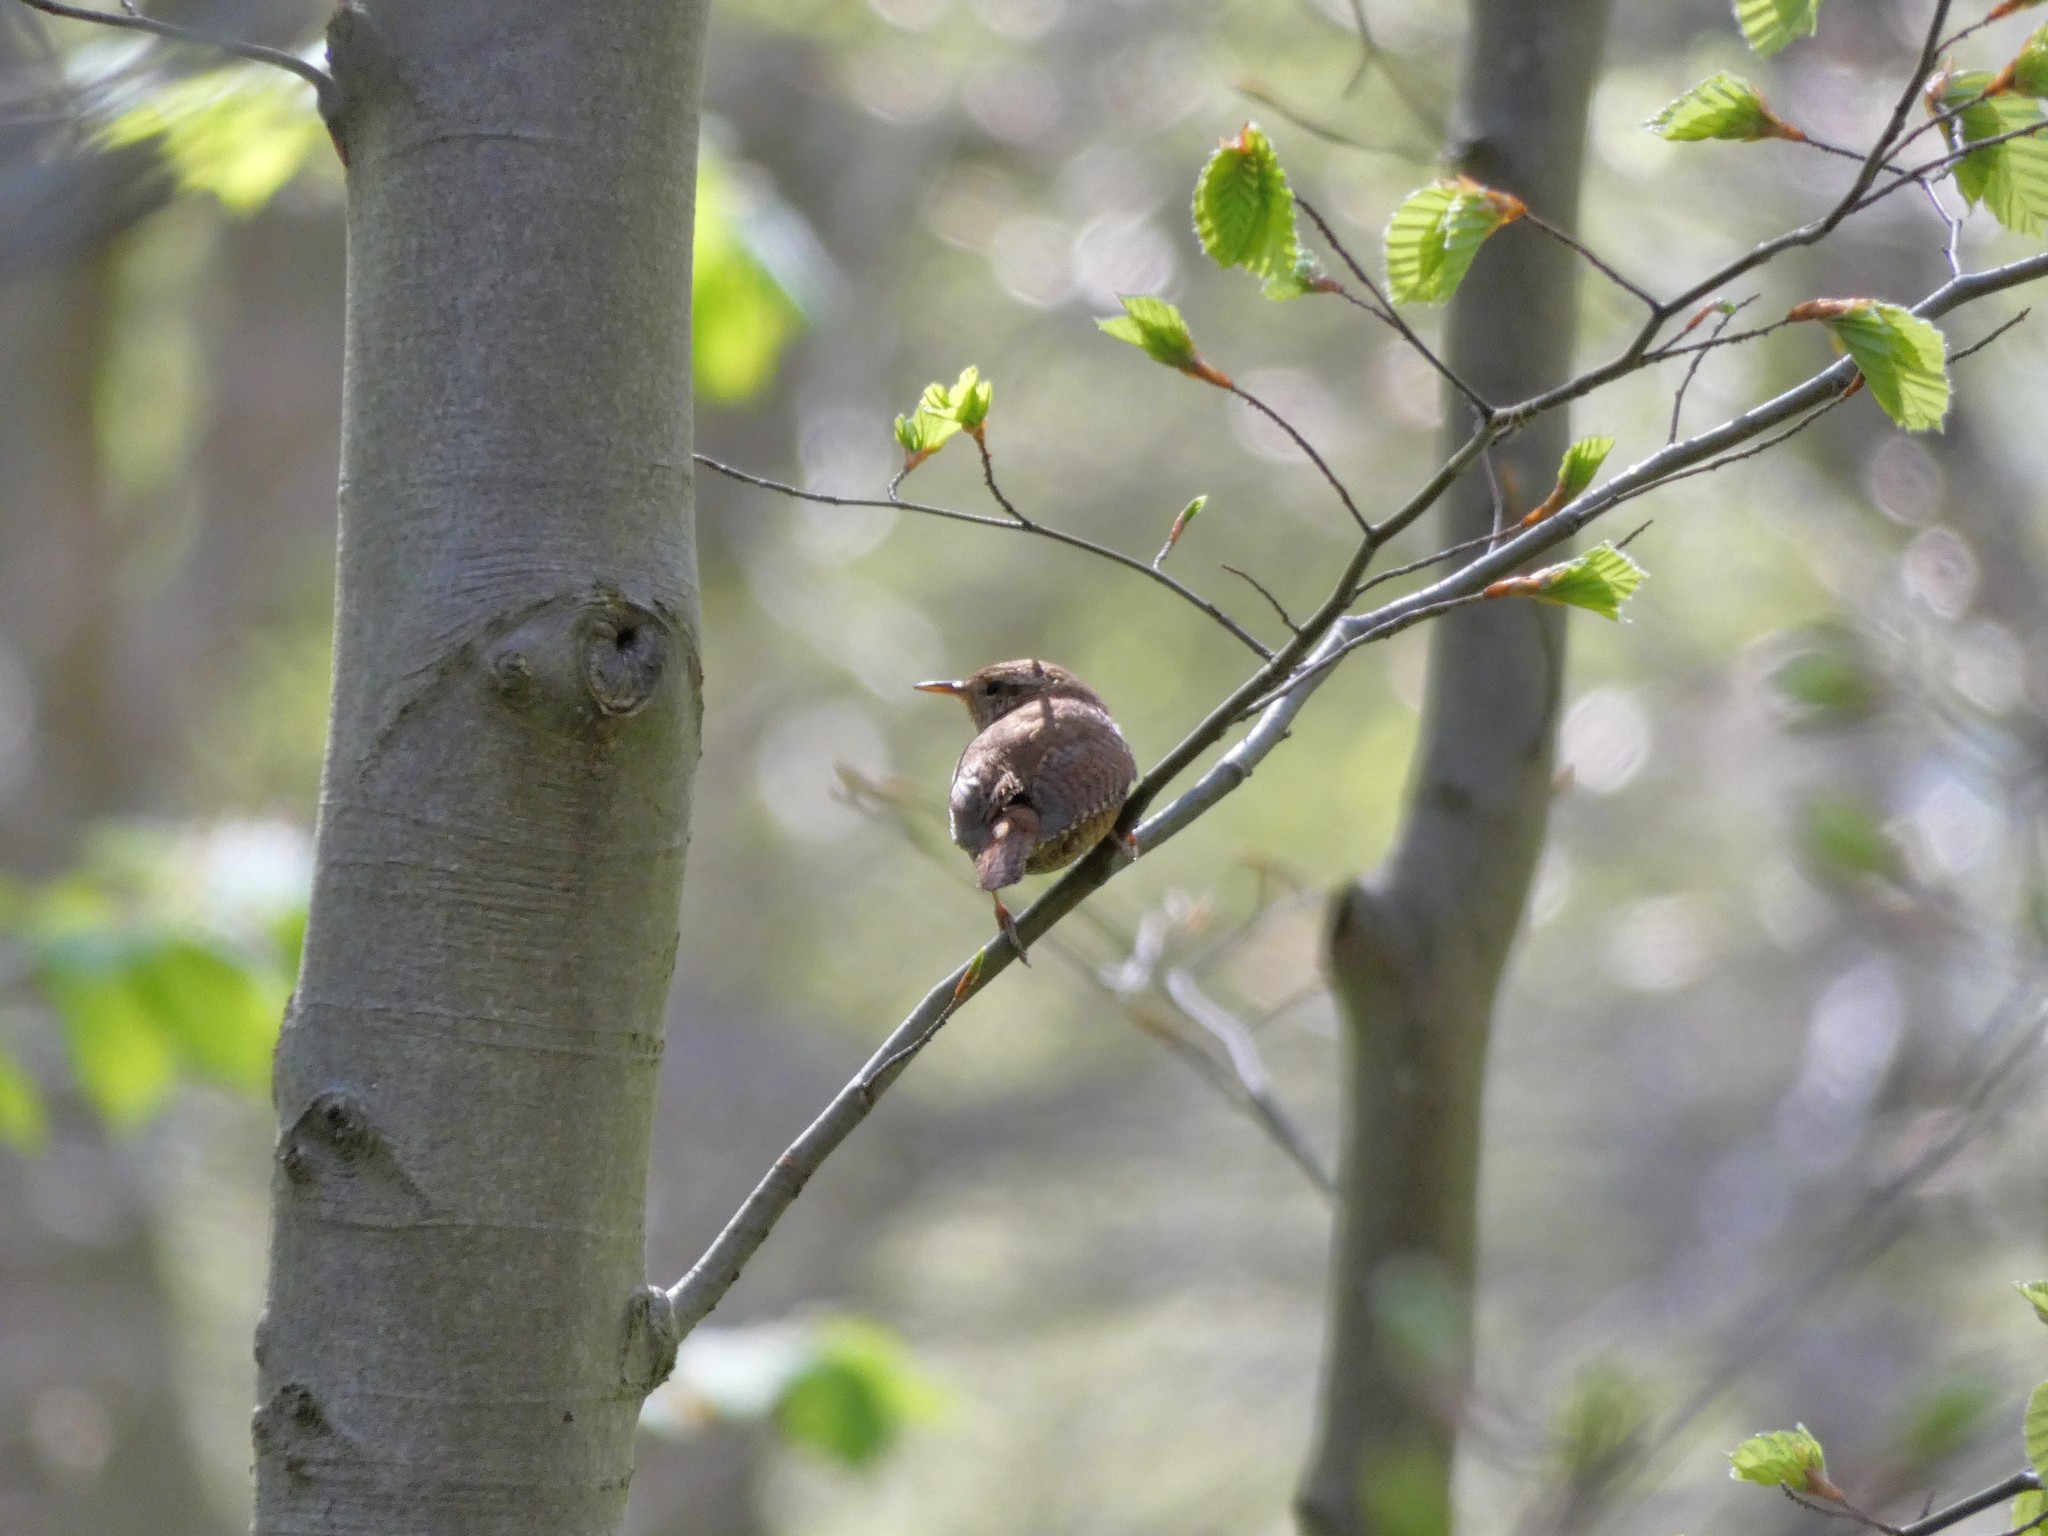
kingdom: Animalia
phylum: Chordata
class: Aves
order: Passeriformes
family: Troglodytidae
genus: Troglodytes
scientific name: Troglodytes troglodytes
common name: Eurasian wren
